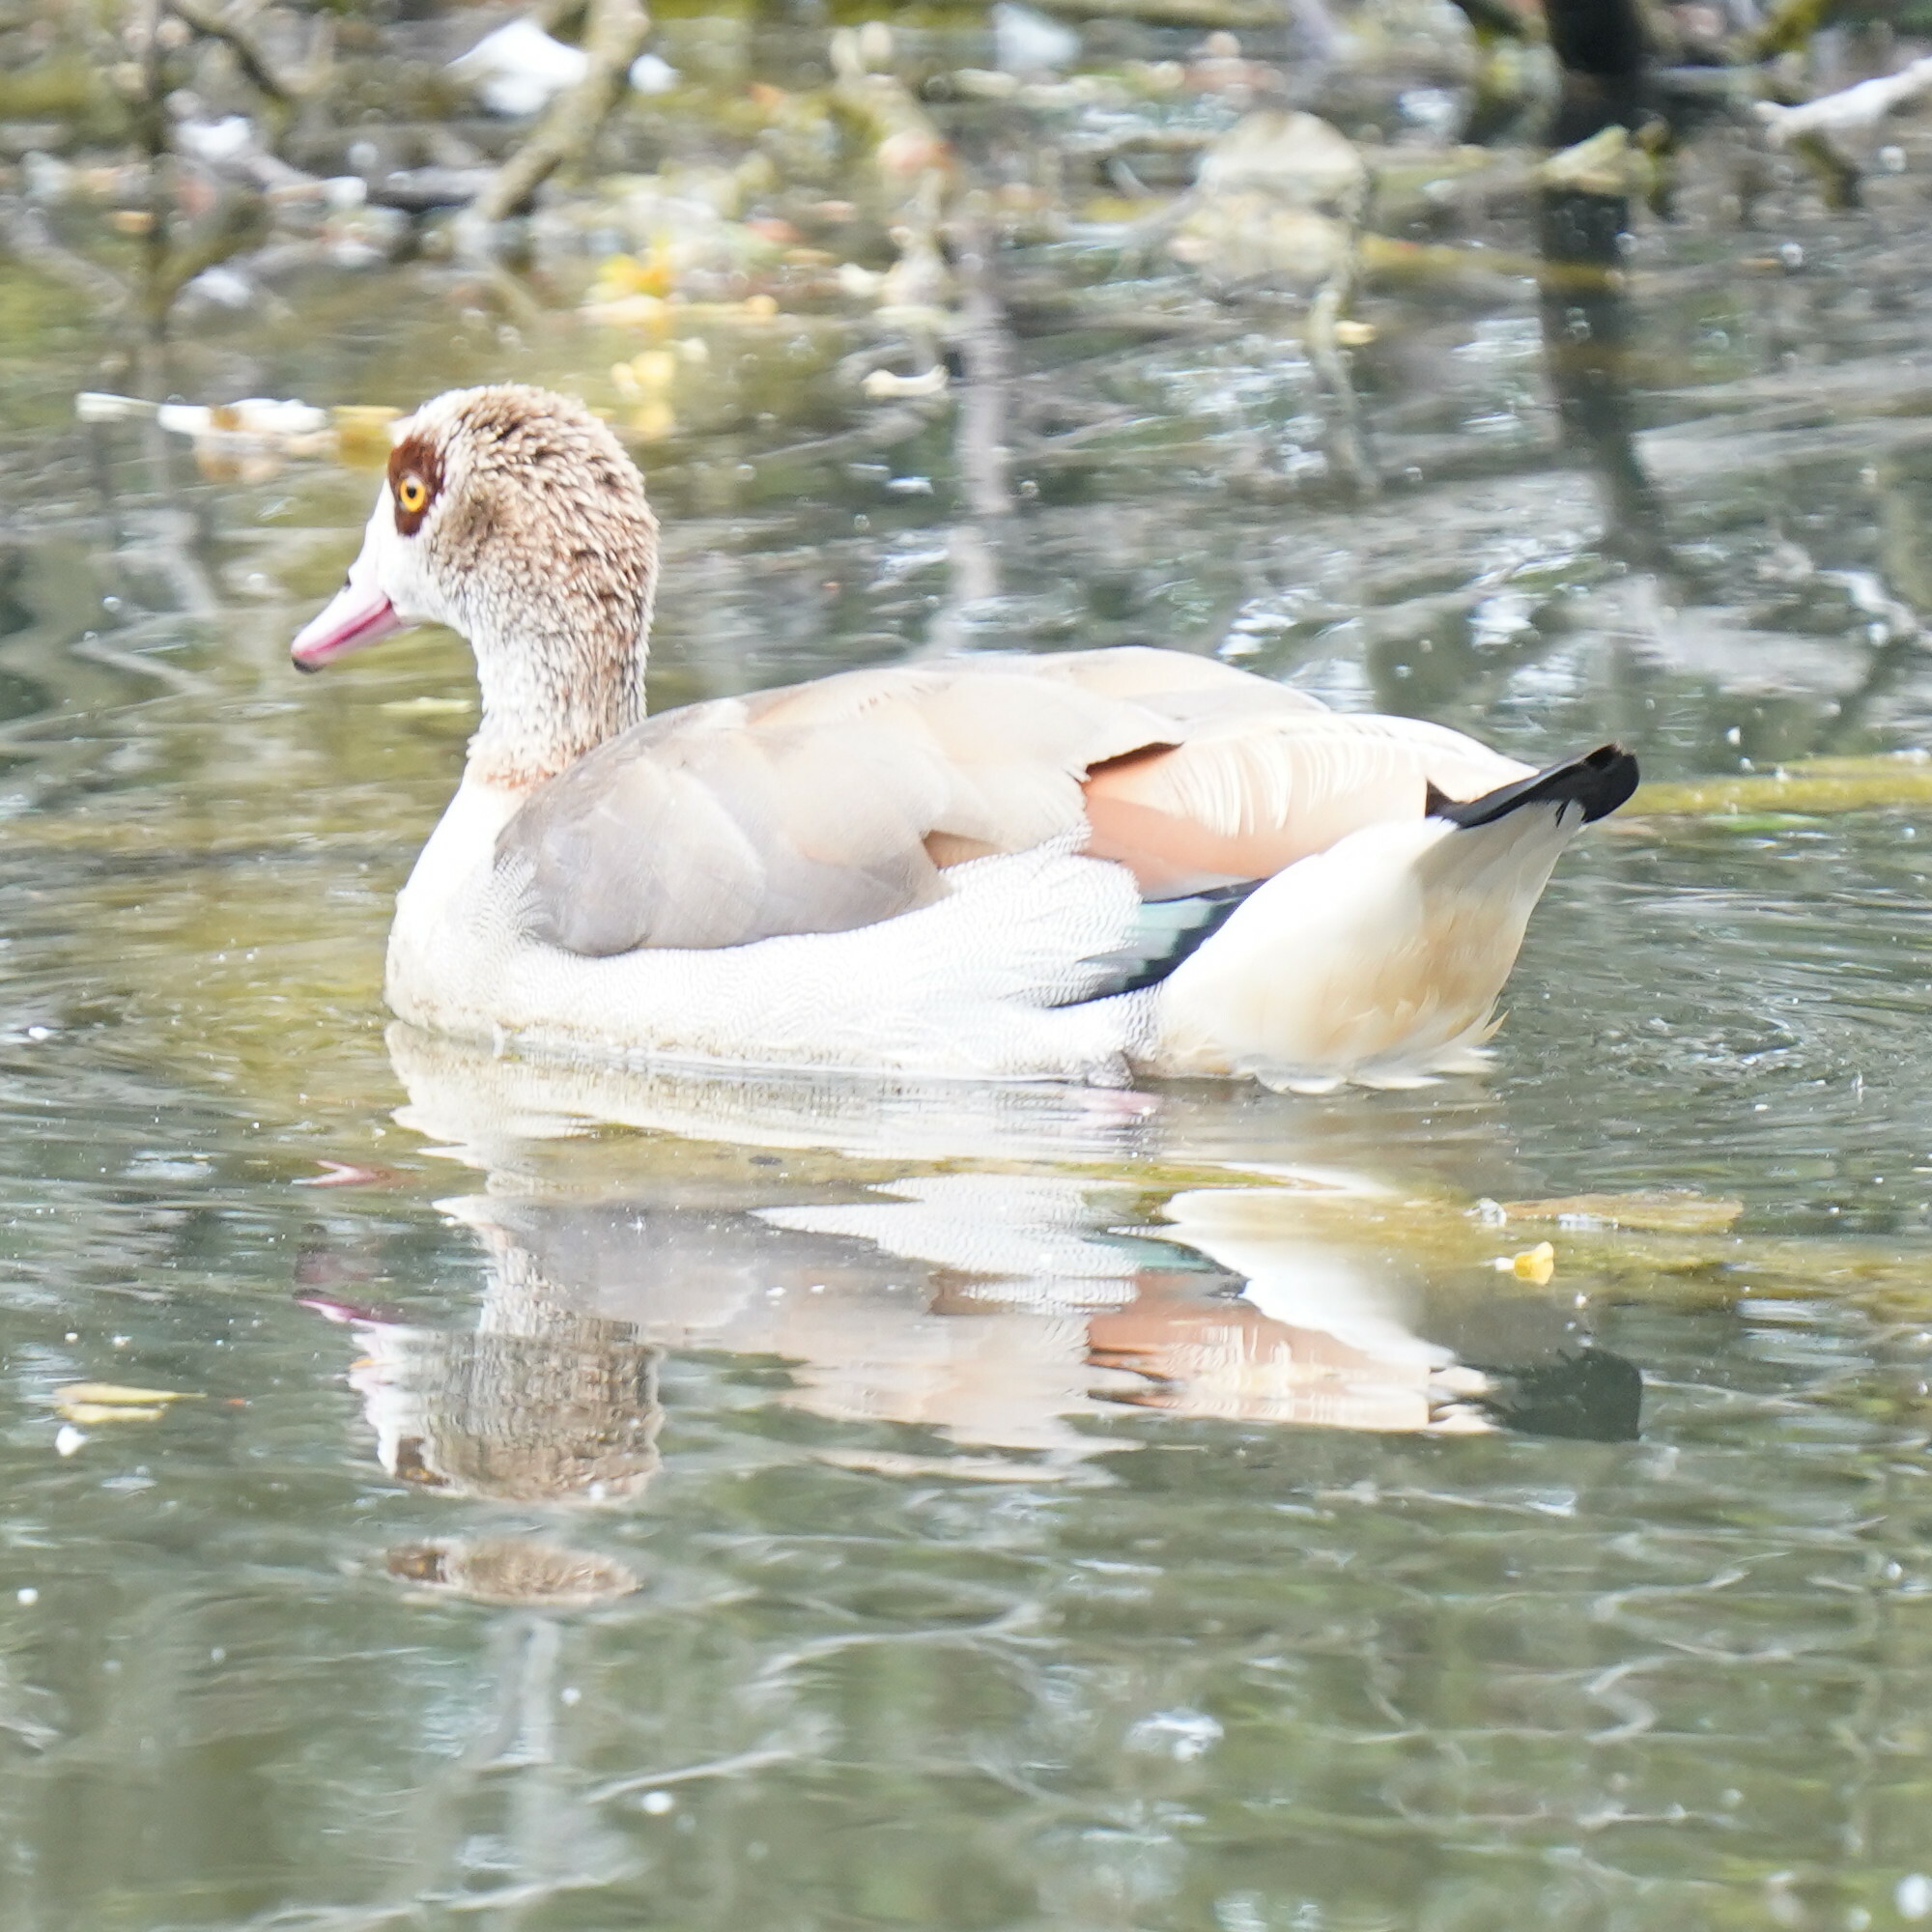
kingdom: Animalia
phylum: Chordata
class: Aves
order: Anseriformes
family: Anatidae
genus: Alopochen
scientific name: Alopochen aegyptiaca
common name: Egyptian goose
